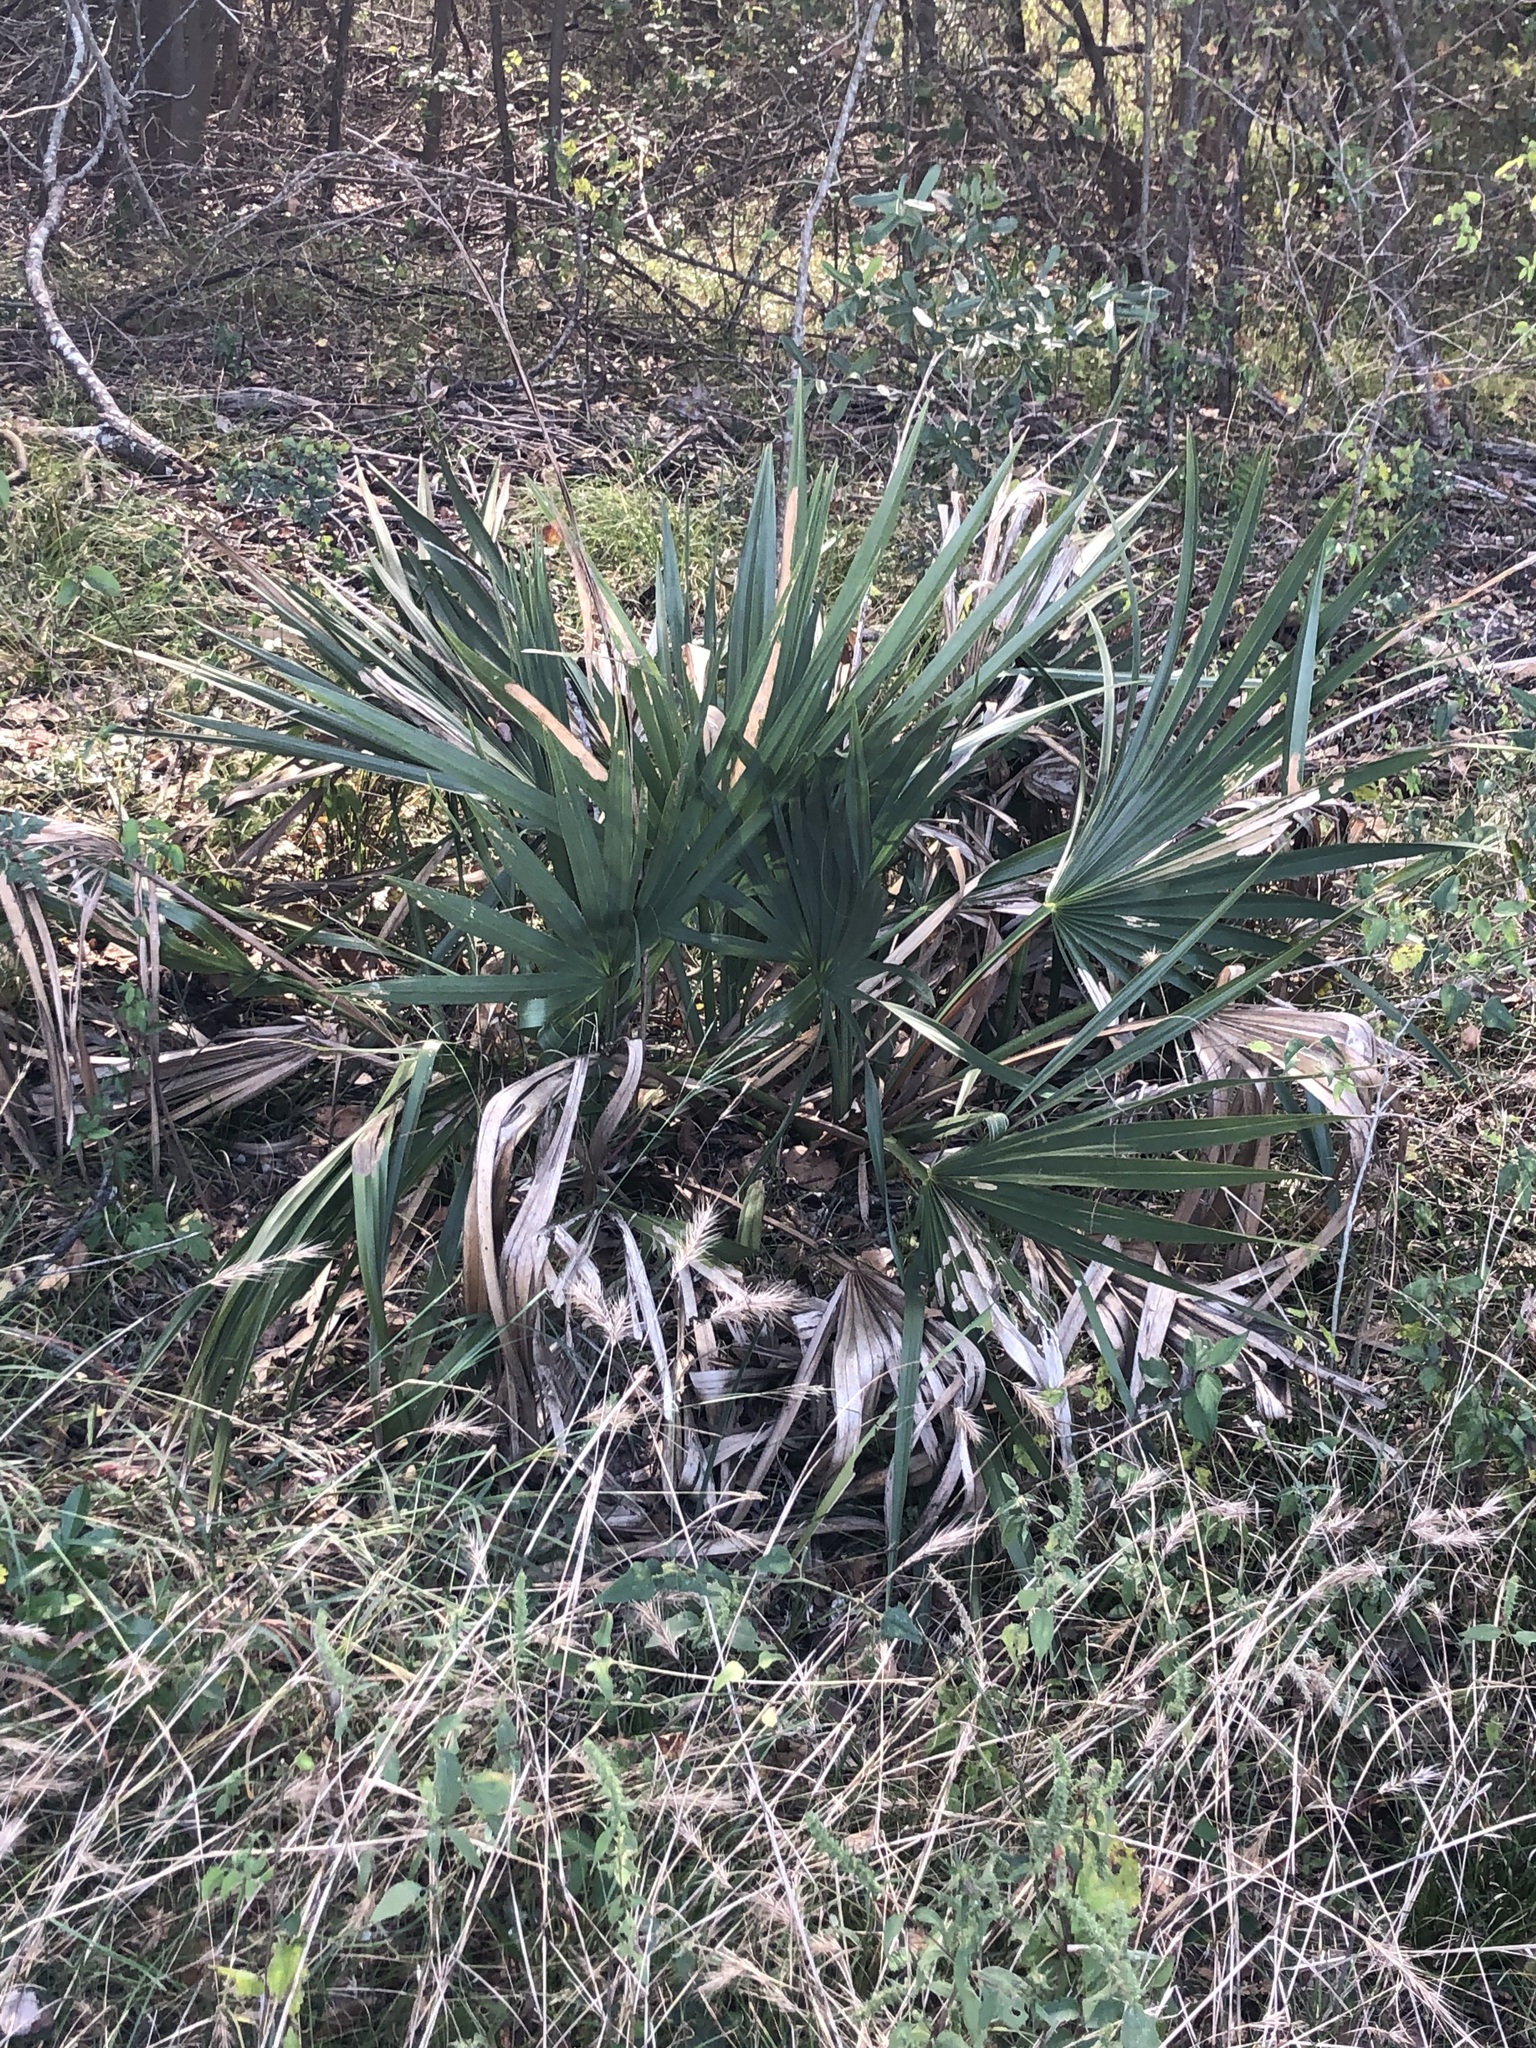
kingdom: Plantae
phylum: Tracheophyta
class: Liliopsida
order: Arecales
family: Arecaceae
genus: Sabal
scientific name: Sabal minor
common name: Dwarf palmetto
